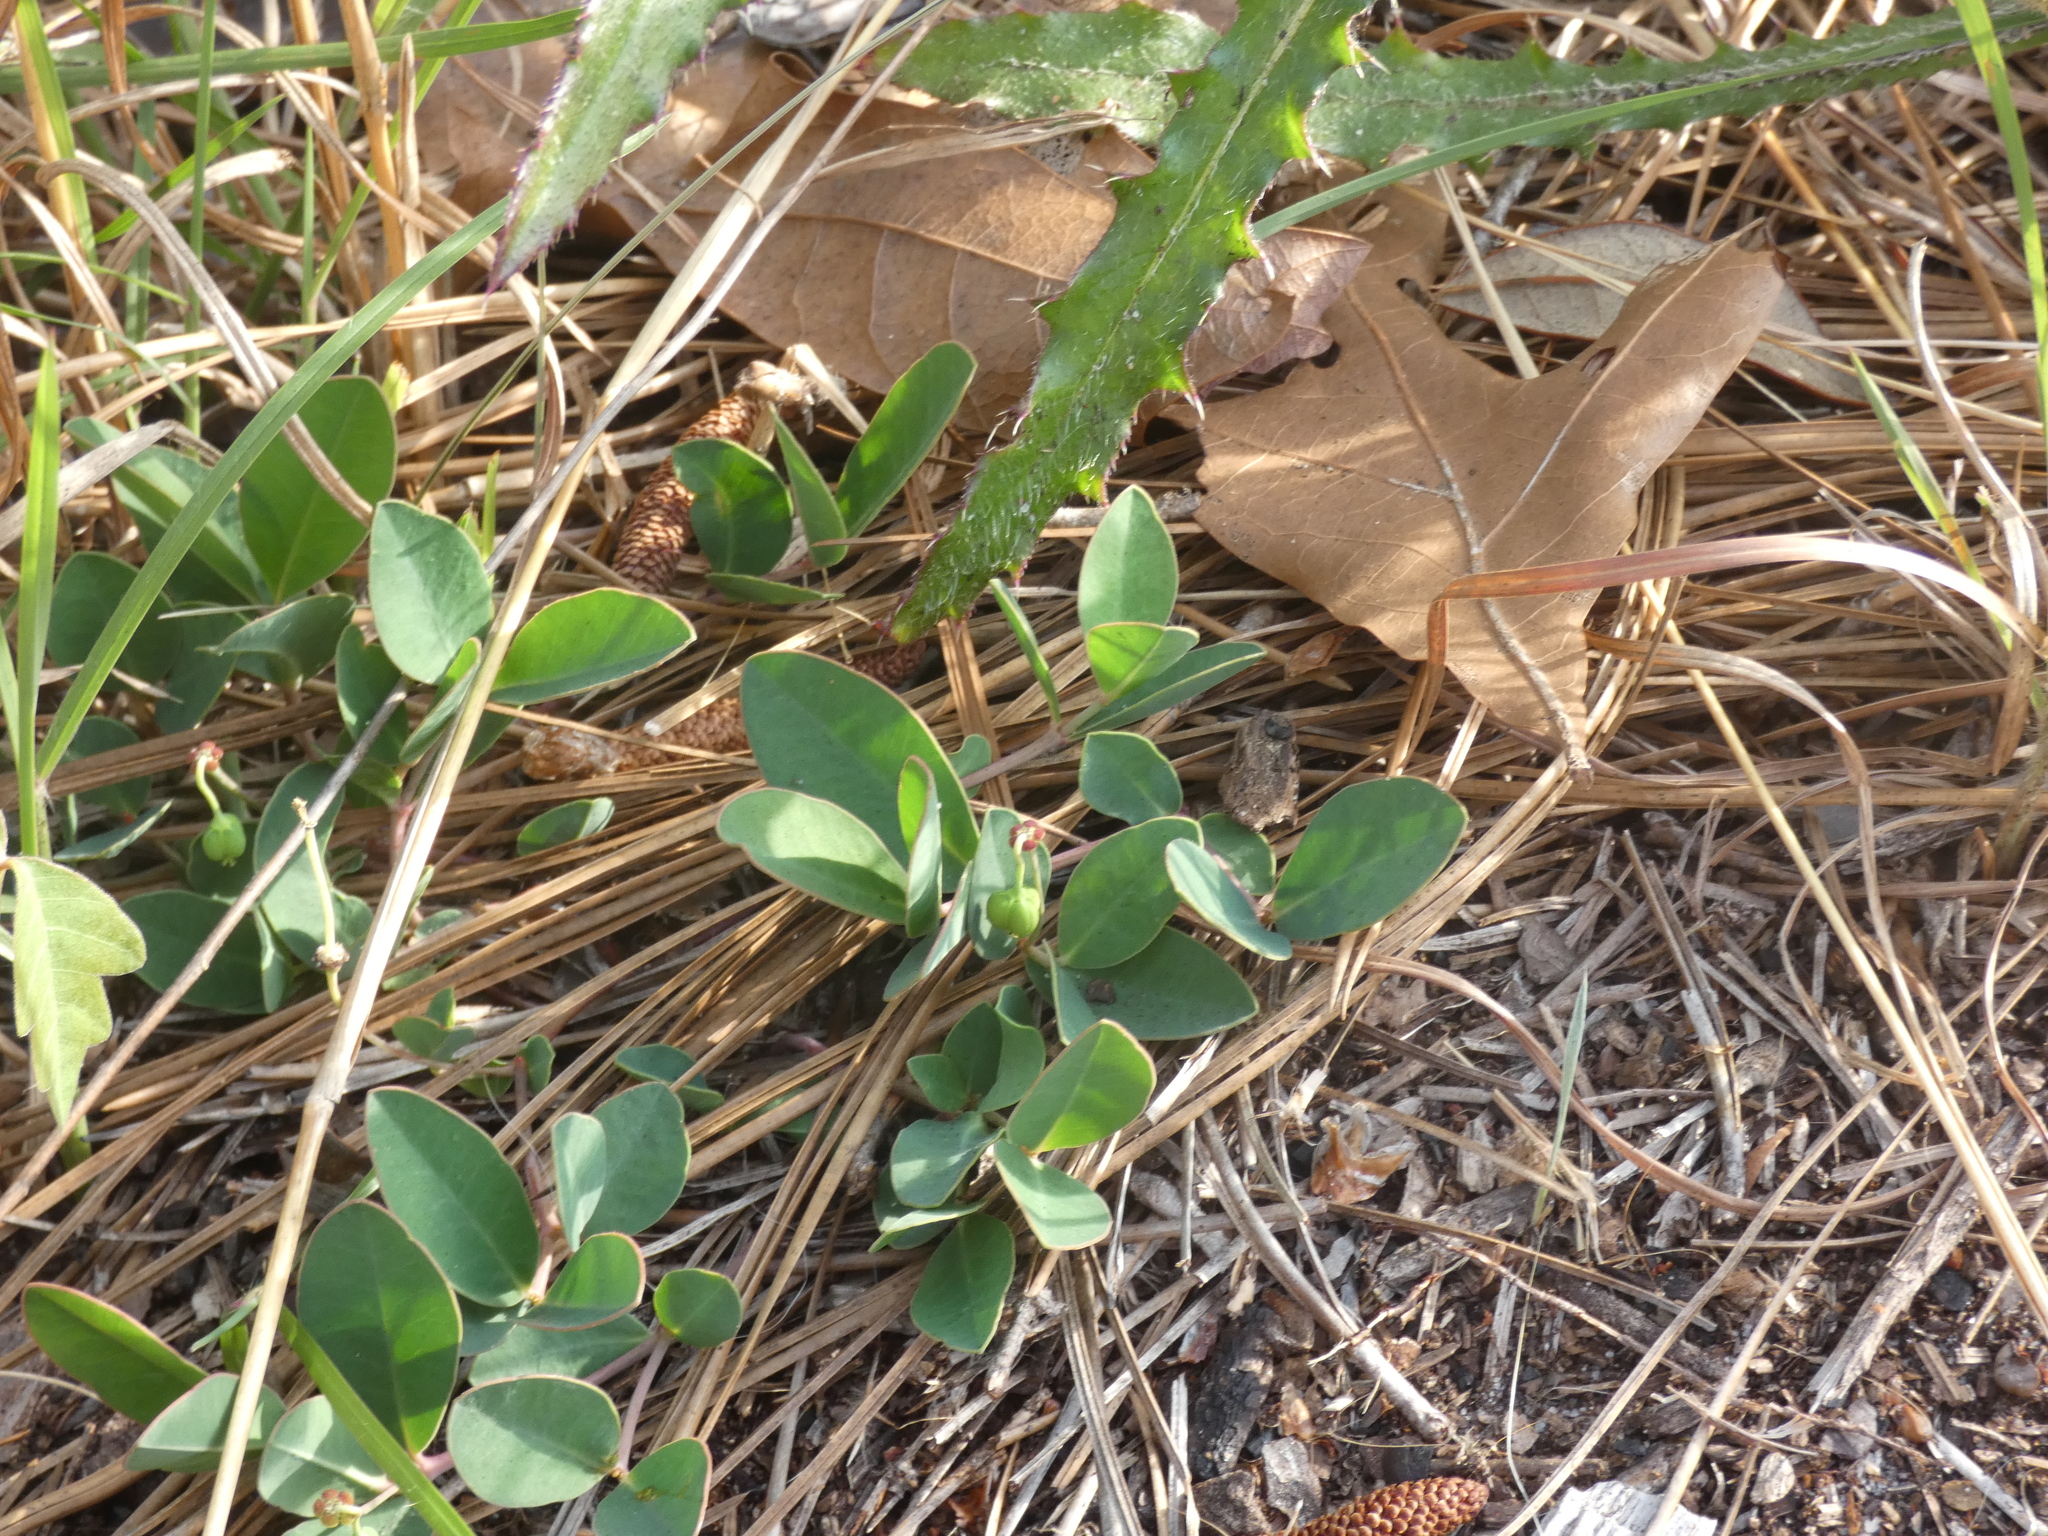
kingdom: Plantae
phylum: Tracheophyta
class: Magnoliopsida
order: Malpighiales
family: Euphorbiaceae
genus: Euphorbia
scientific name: Euphorbia ipecacuanhae
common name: Carolina ipecac
